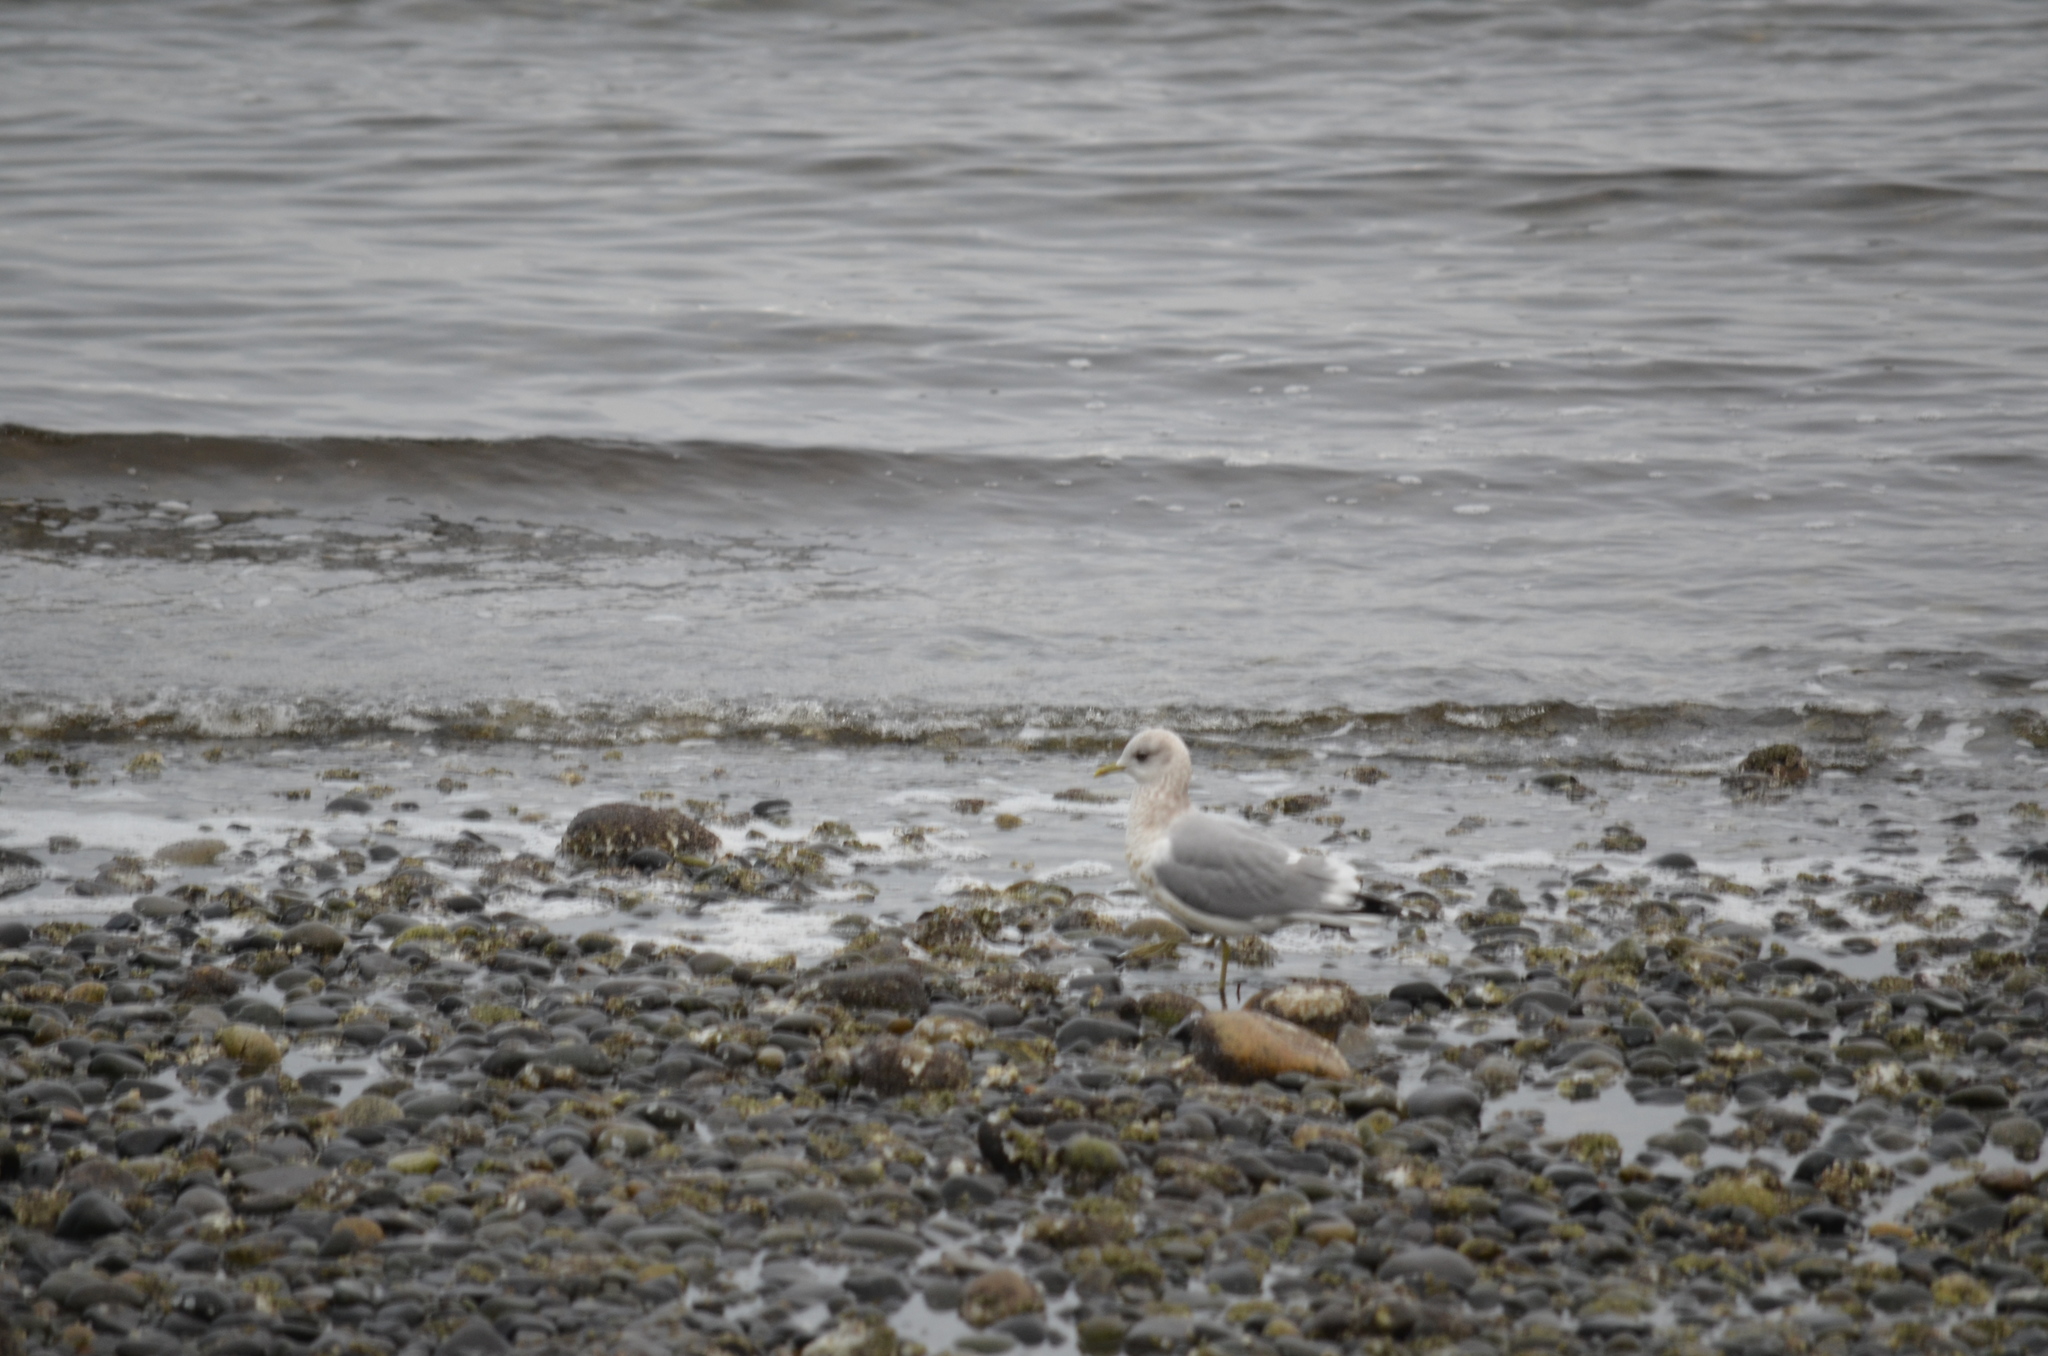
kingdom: Animalia
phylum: Chordata
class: Aves
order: Charadriiformes
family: Laridae
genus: Larus
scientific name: Larus brachyrhynchus
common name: Short-billed gull
